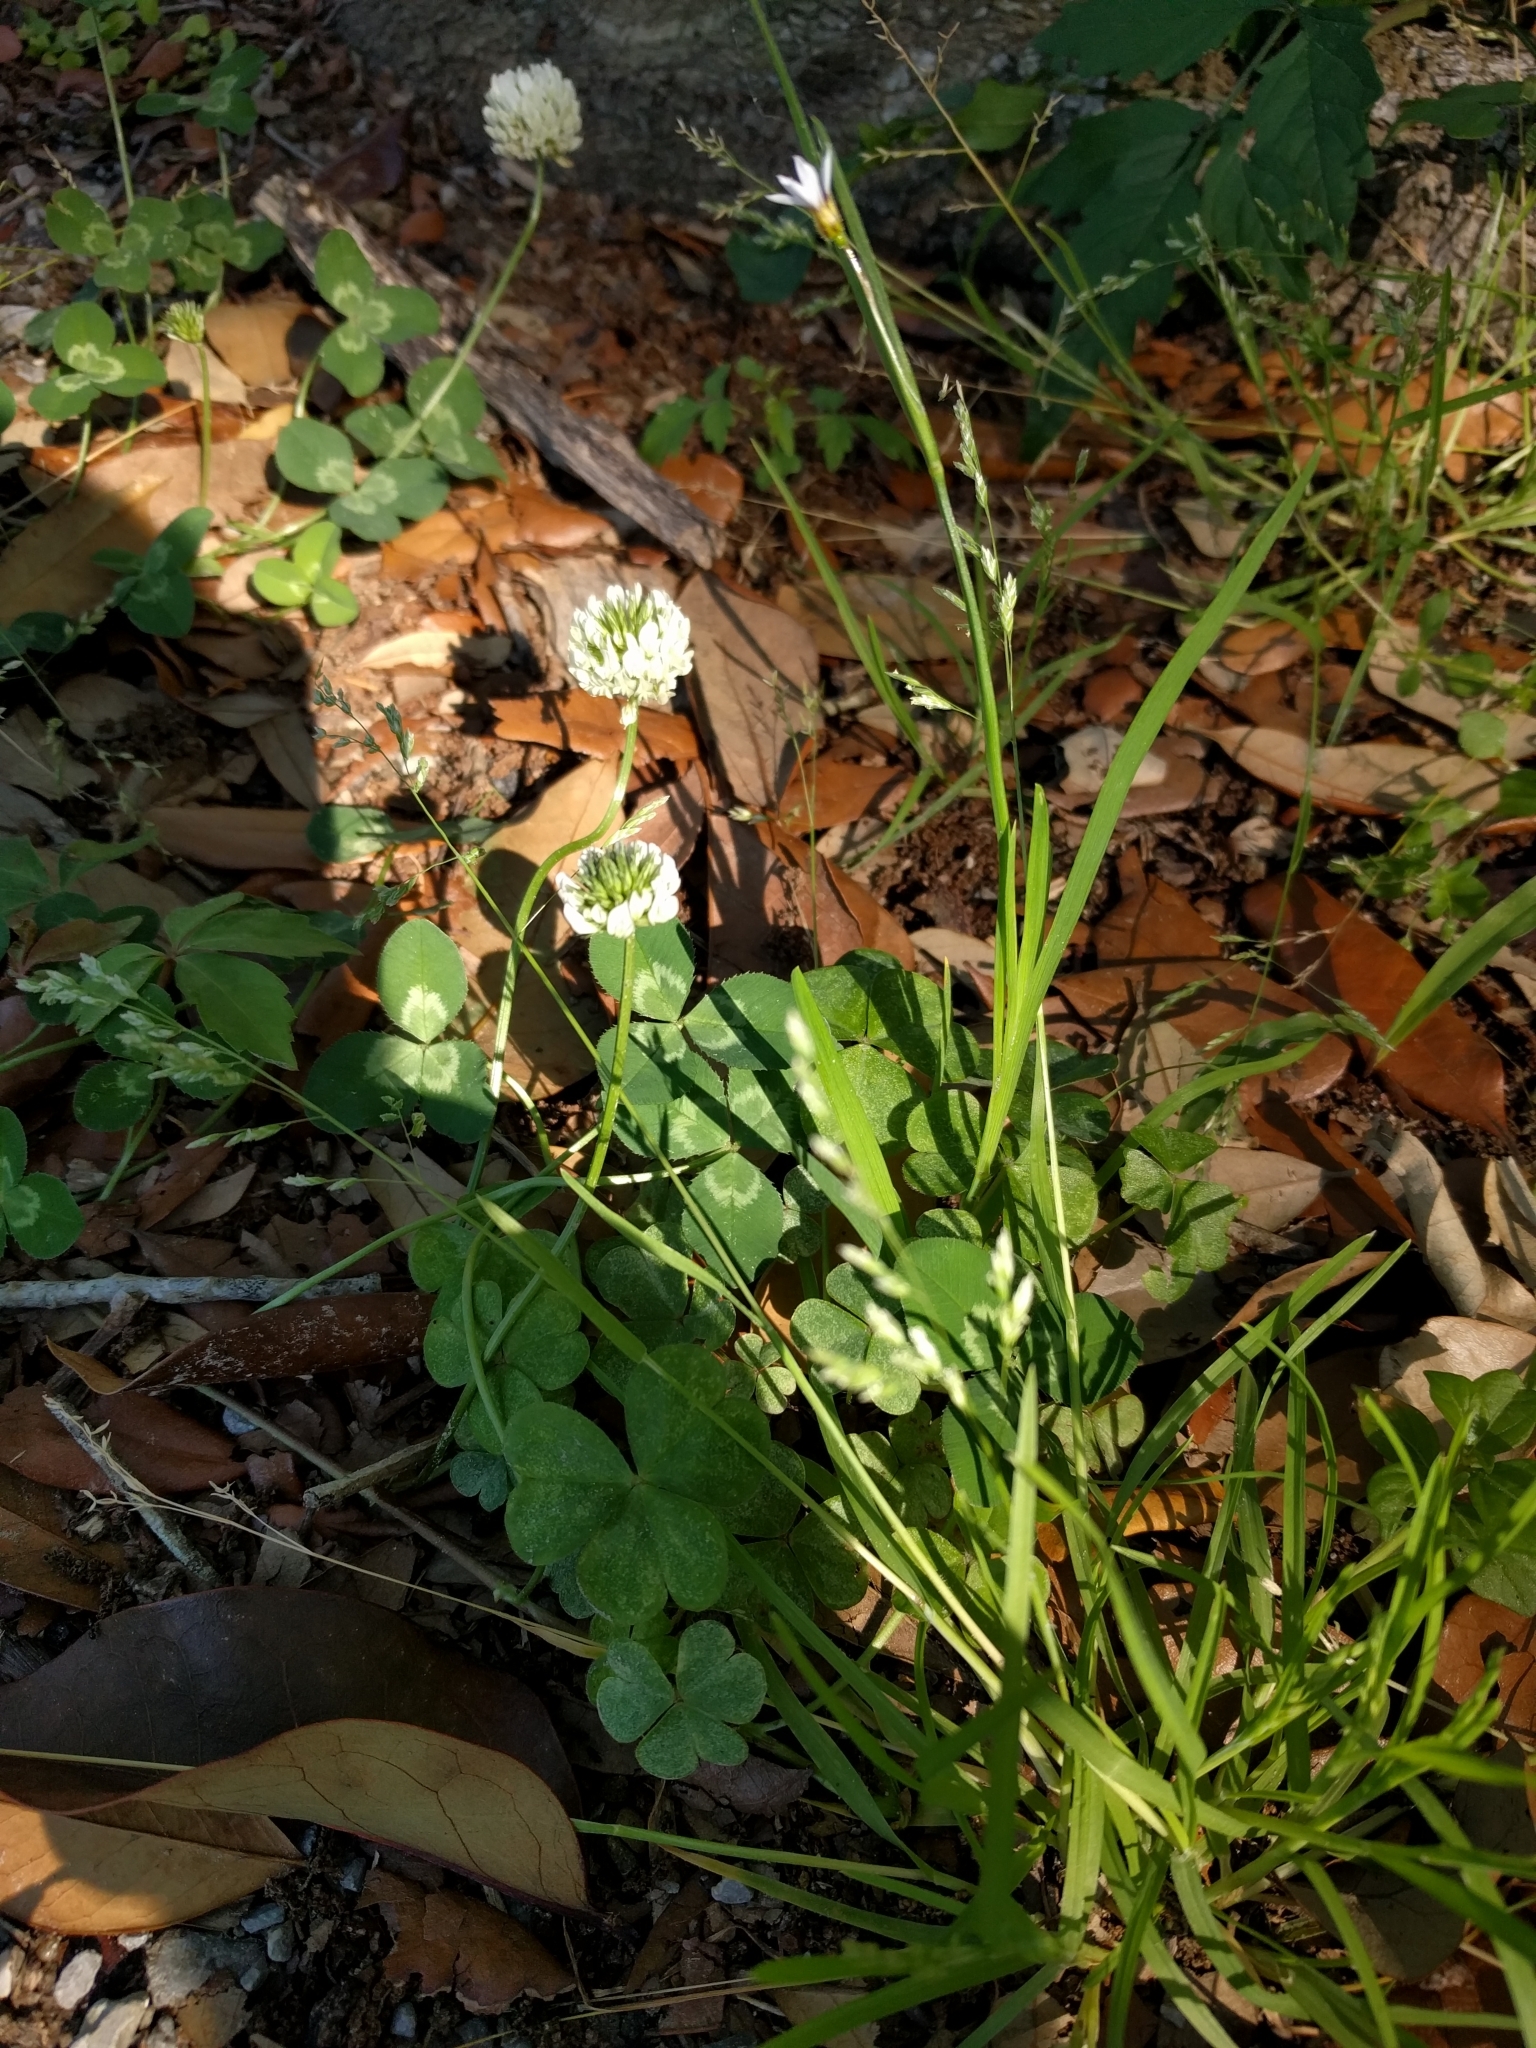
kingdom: Plantae
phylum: Tracheophyta
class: Magnoliopsida
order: Fabales
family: Fabaceae
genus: Trifolium
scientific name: Trifolium repens
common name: White clover
